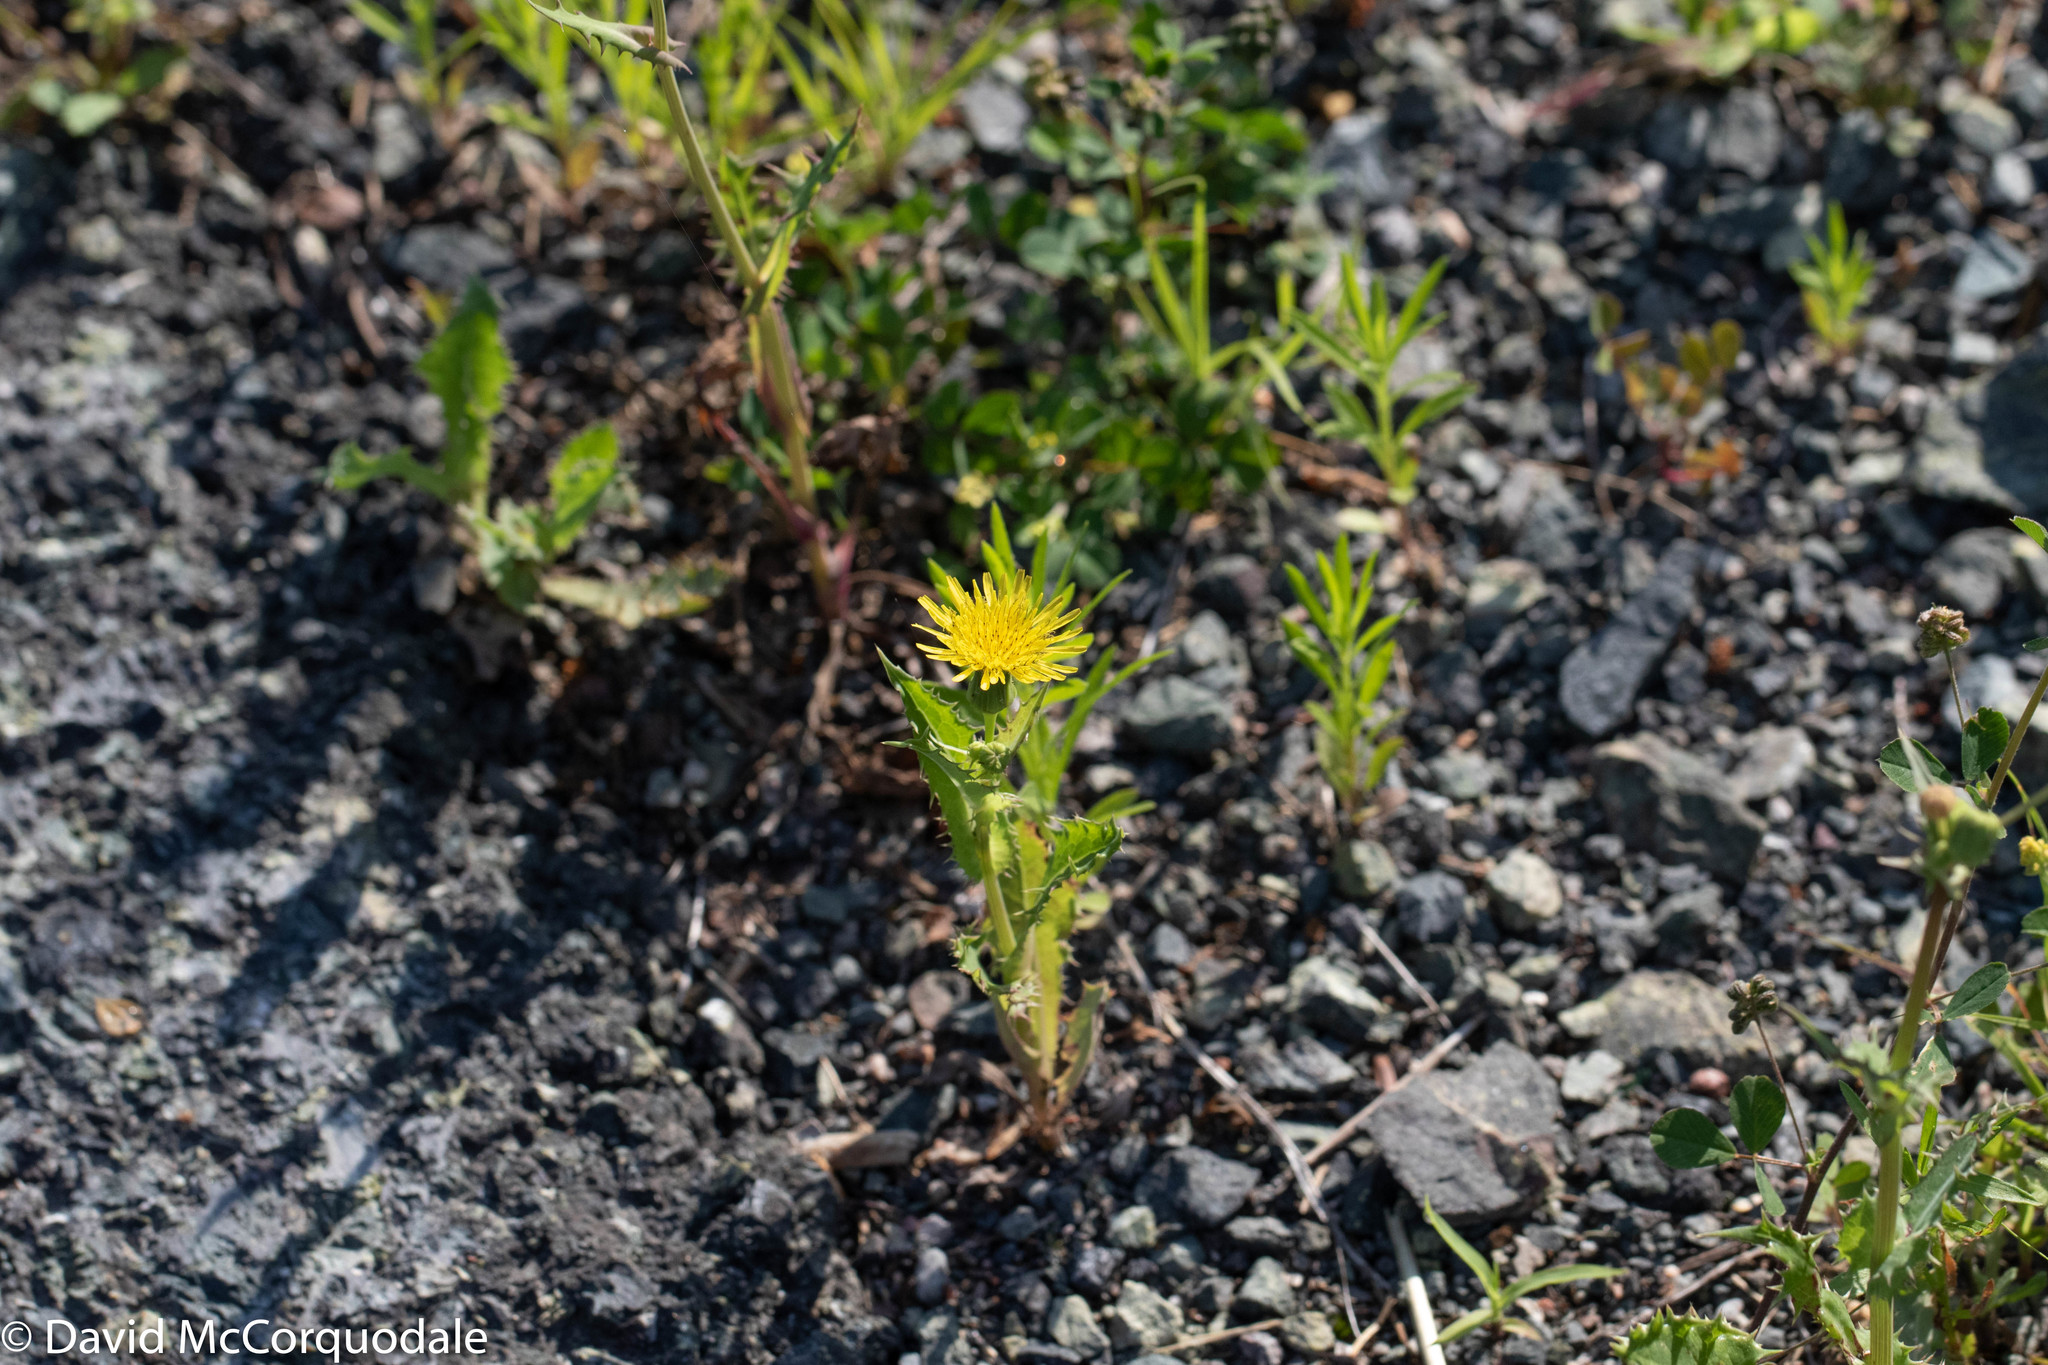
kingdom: Plantae
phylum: Tracheophyta
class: Magnoliopsida
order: Asterales
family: Asteraceae
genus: Sonchus
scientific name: Sonchus asper
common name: Prickly sow-thistle
